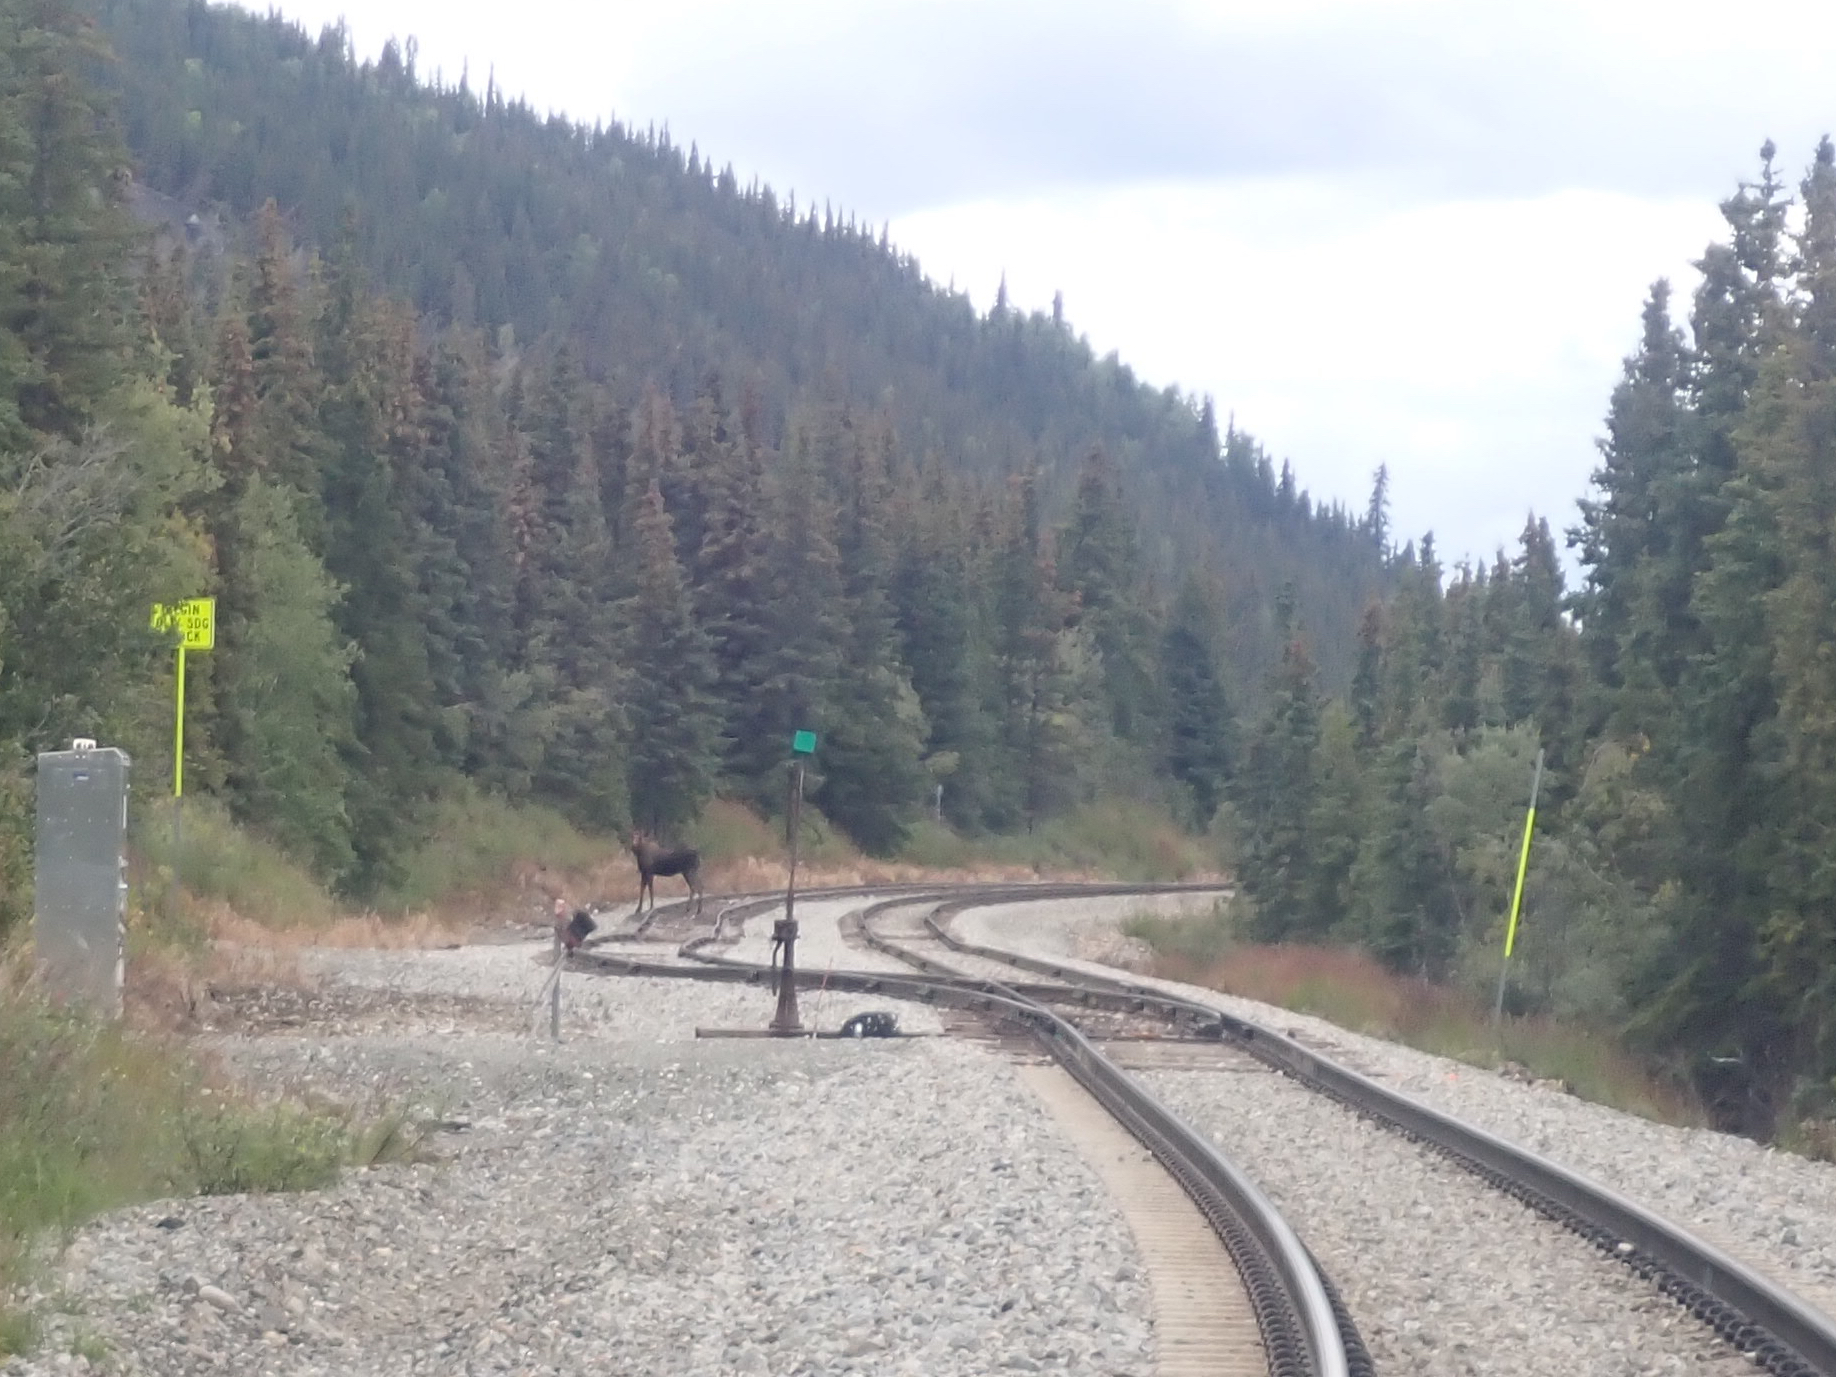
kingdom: Animalia
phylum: Chordata
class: Mammalia
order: Artiodactyla
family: Cervidae
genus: Alces
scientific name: Alces alces
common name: Moose
